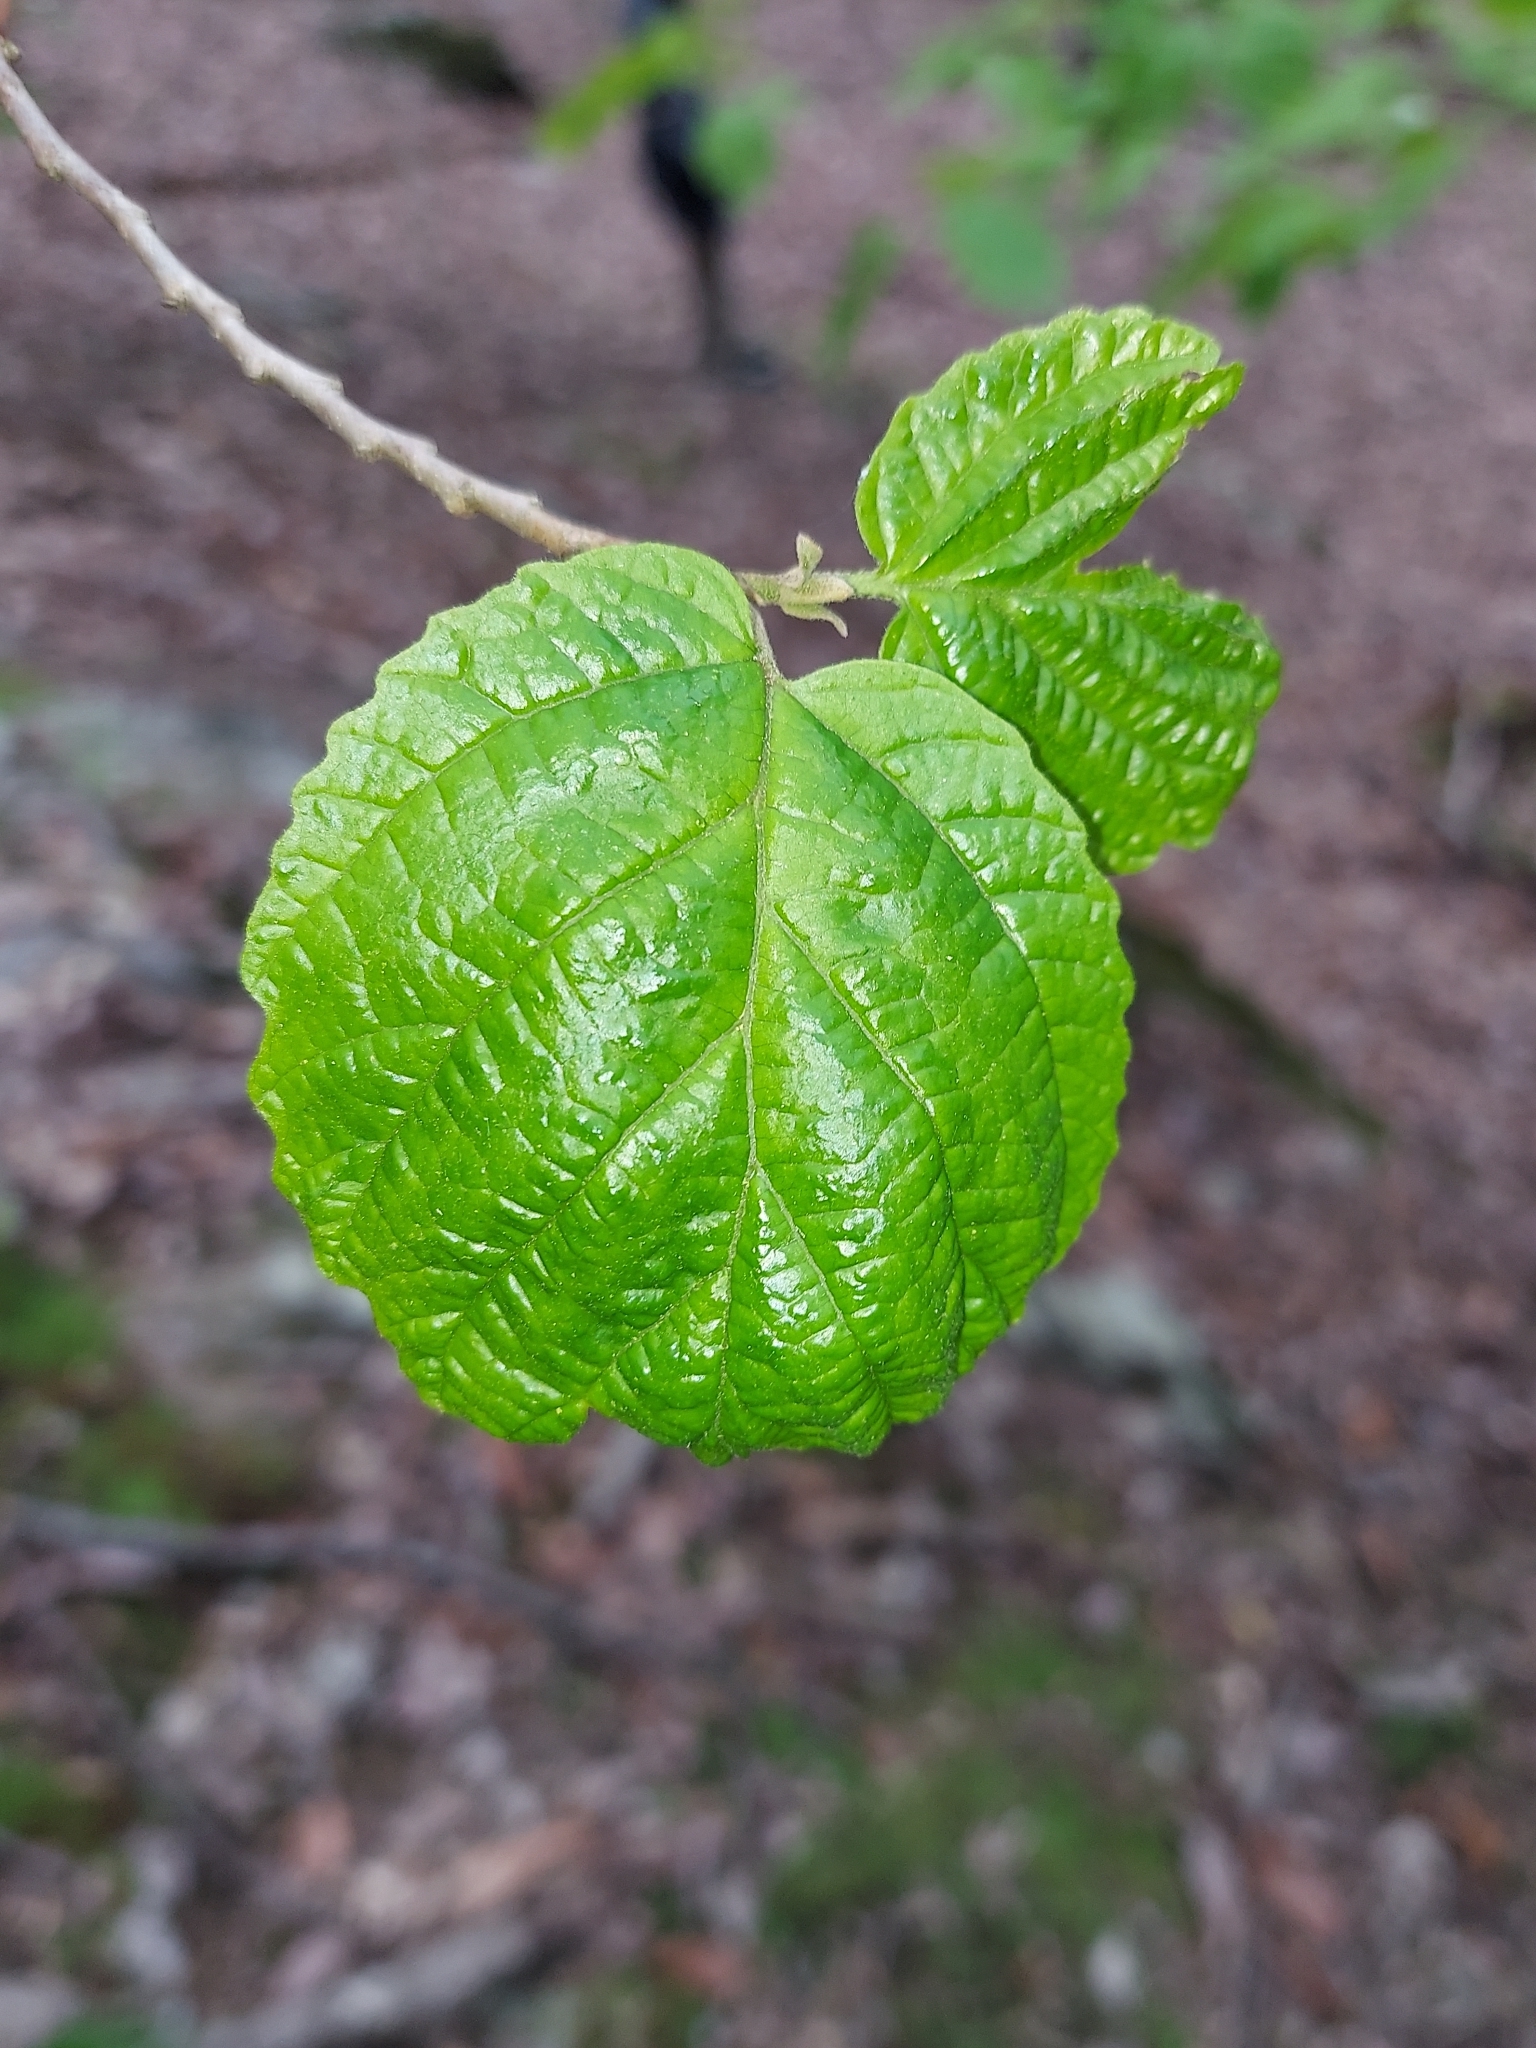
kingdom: Plantae
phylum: Tracheophyta
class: Magnoliopsida
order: Saxifragales
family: Hamamelidaceae
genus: Hamamelis
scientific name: Hamamelis virginiana
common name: Witch-hazel
